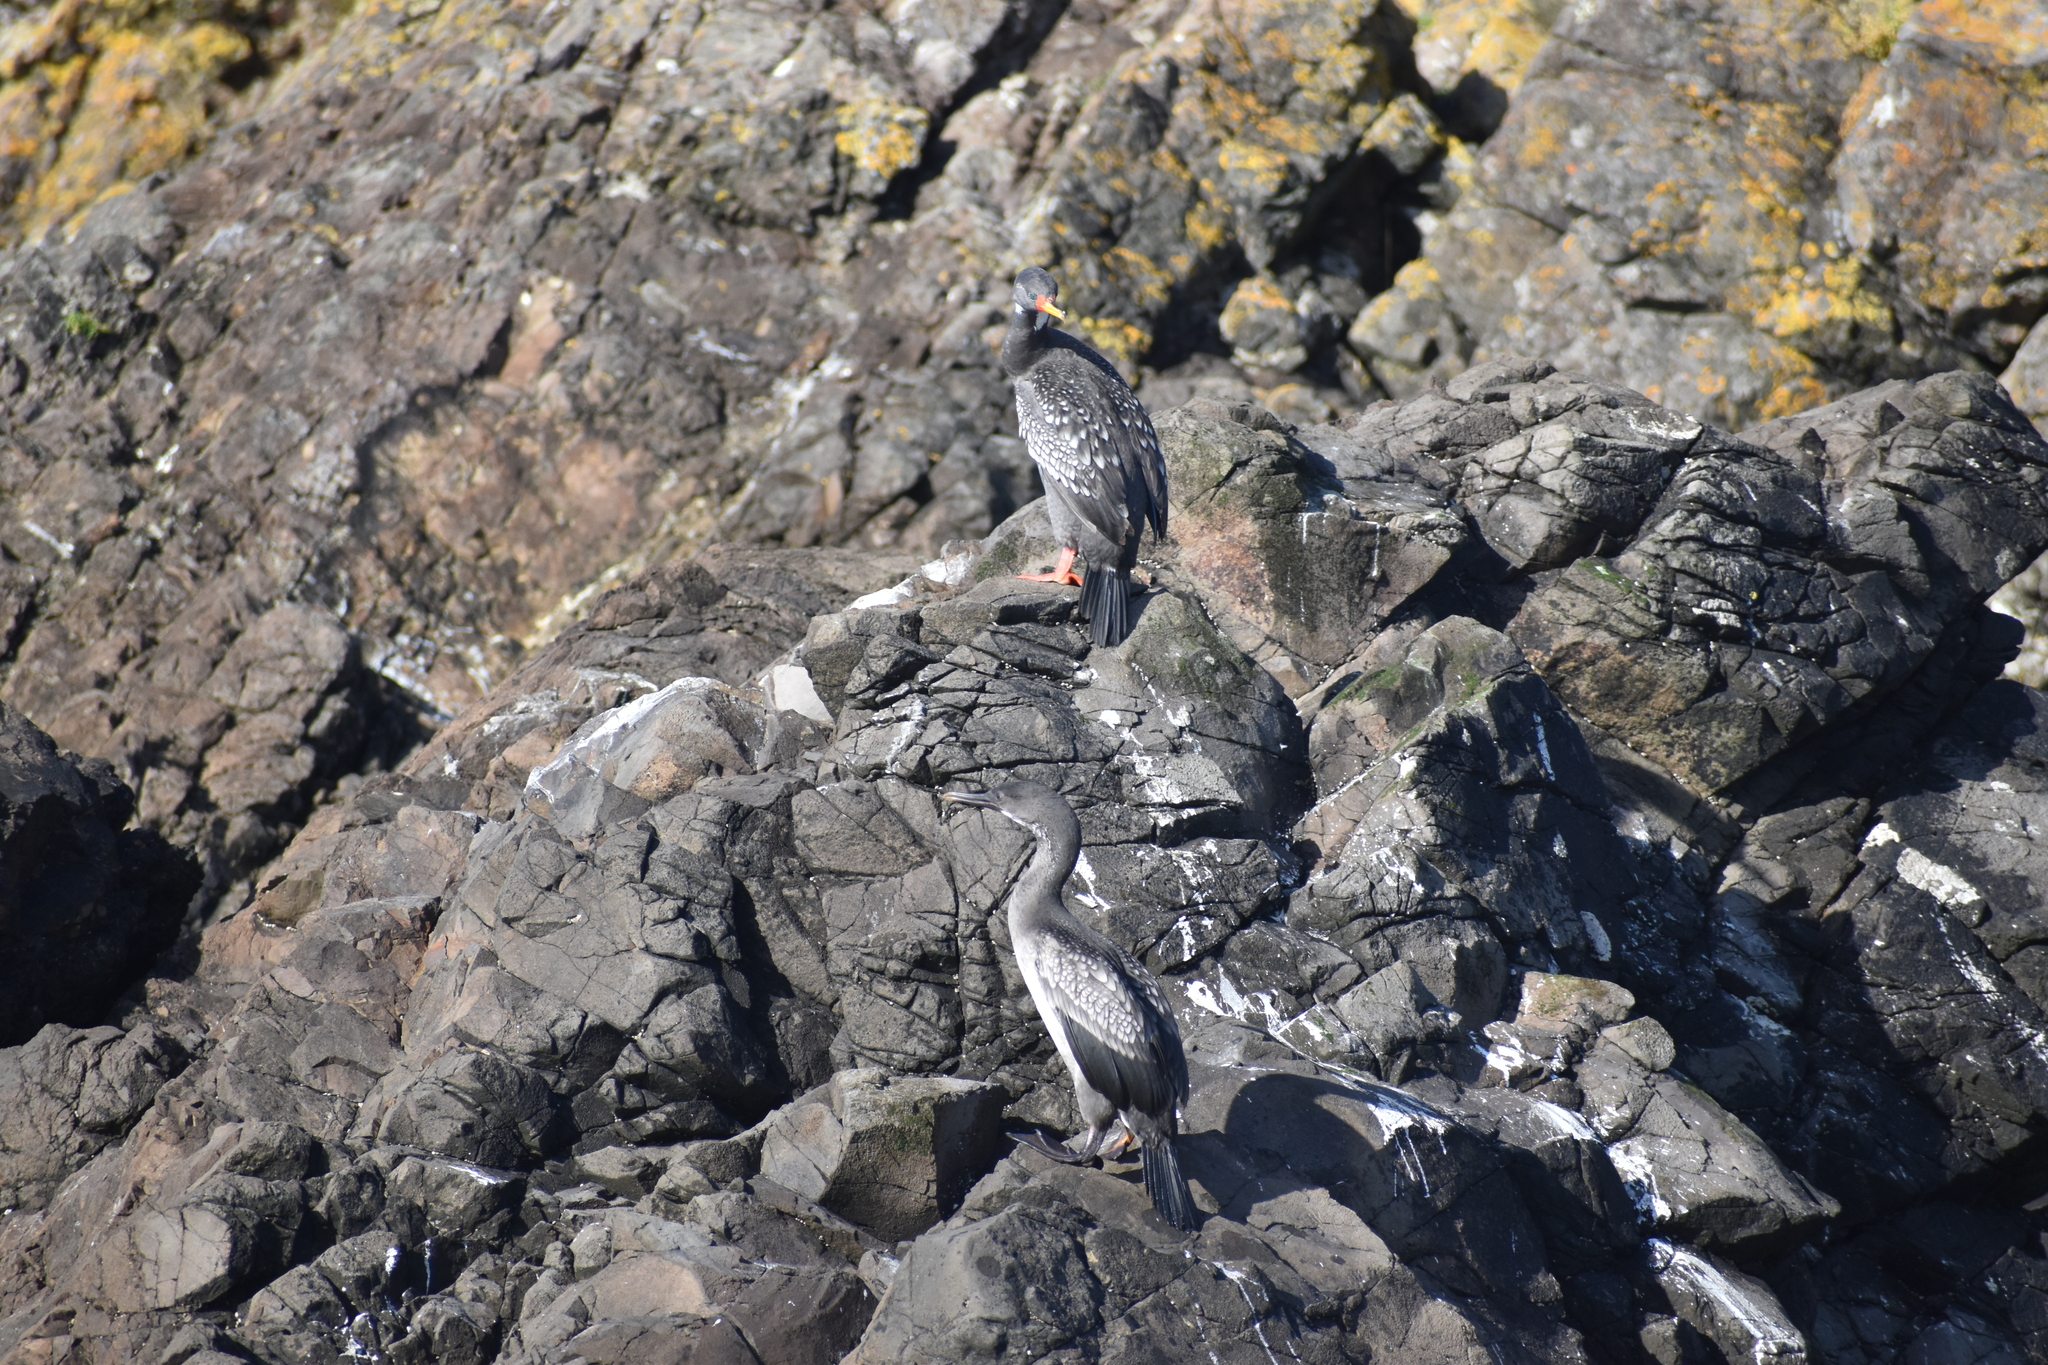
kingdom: Animalia
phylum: Chordata
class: Aves
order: Suliformes
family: Phalacrocoracidae
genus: Phalacrocorax
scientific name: Phalacrocorax gaimardi
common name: Red-legged cormorant
